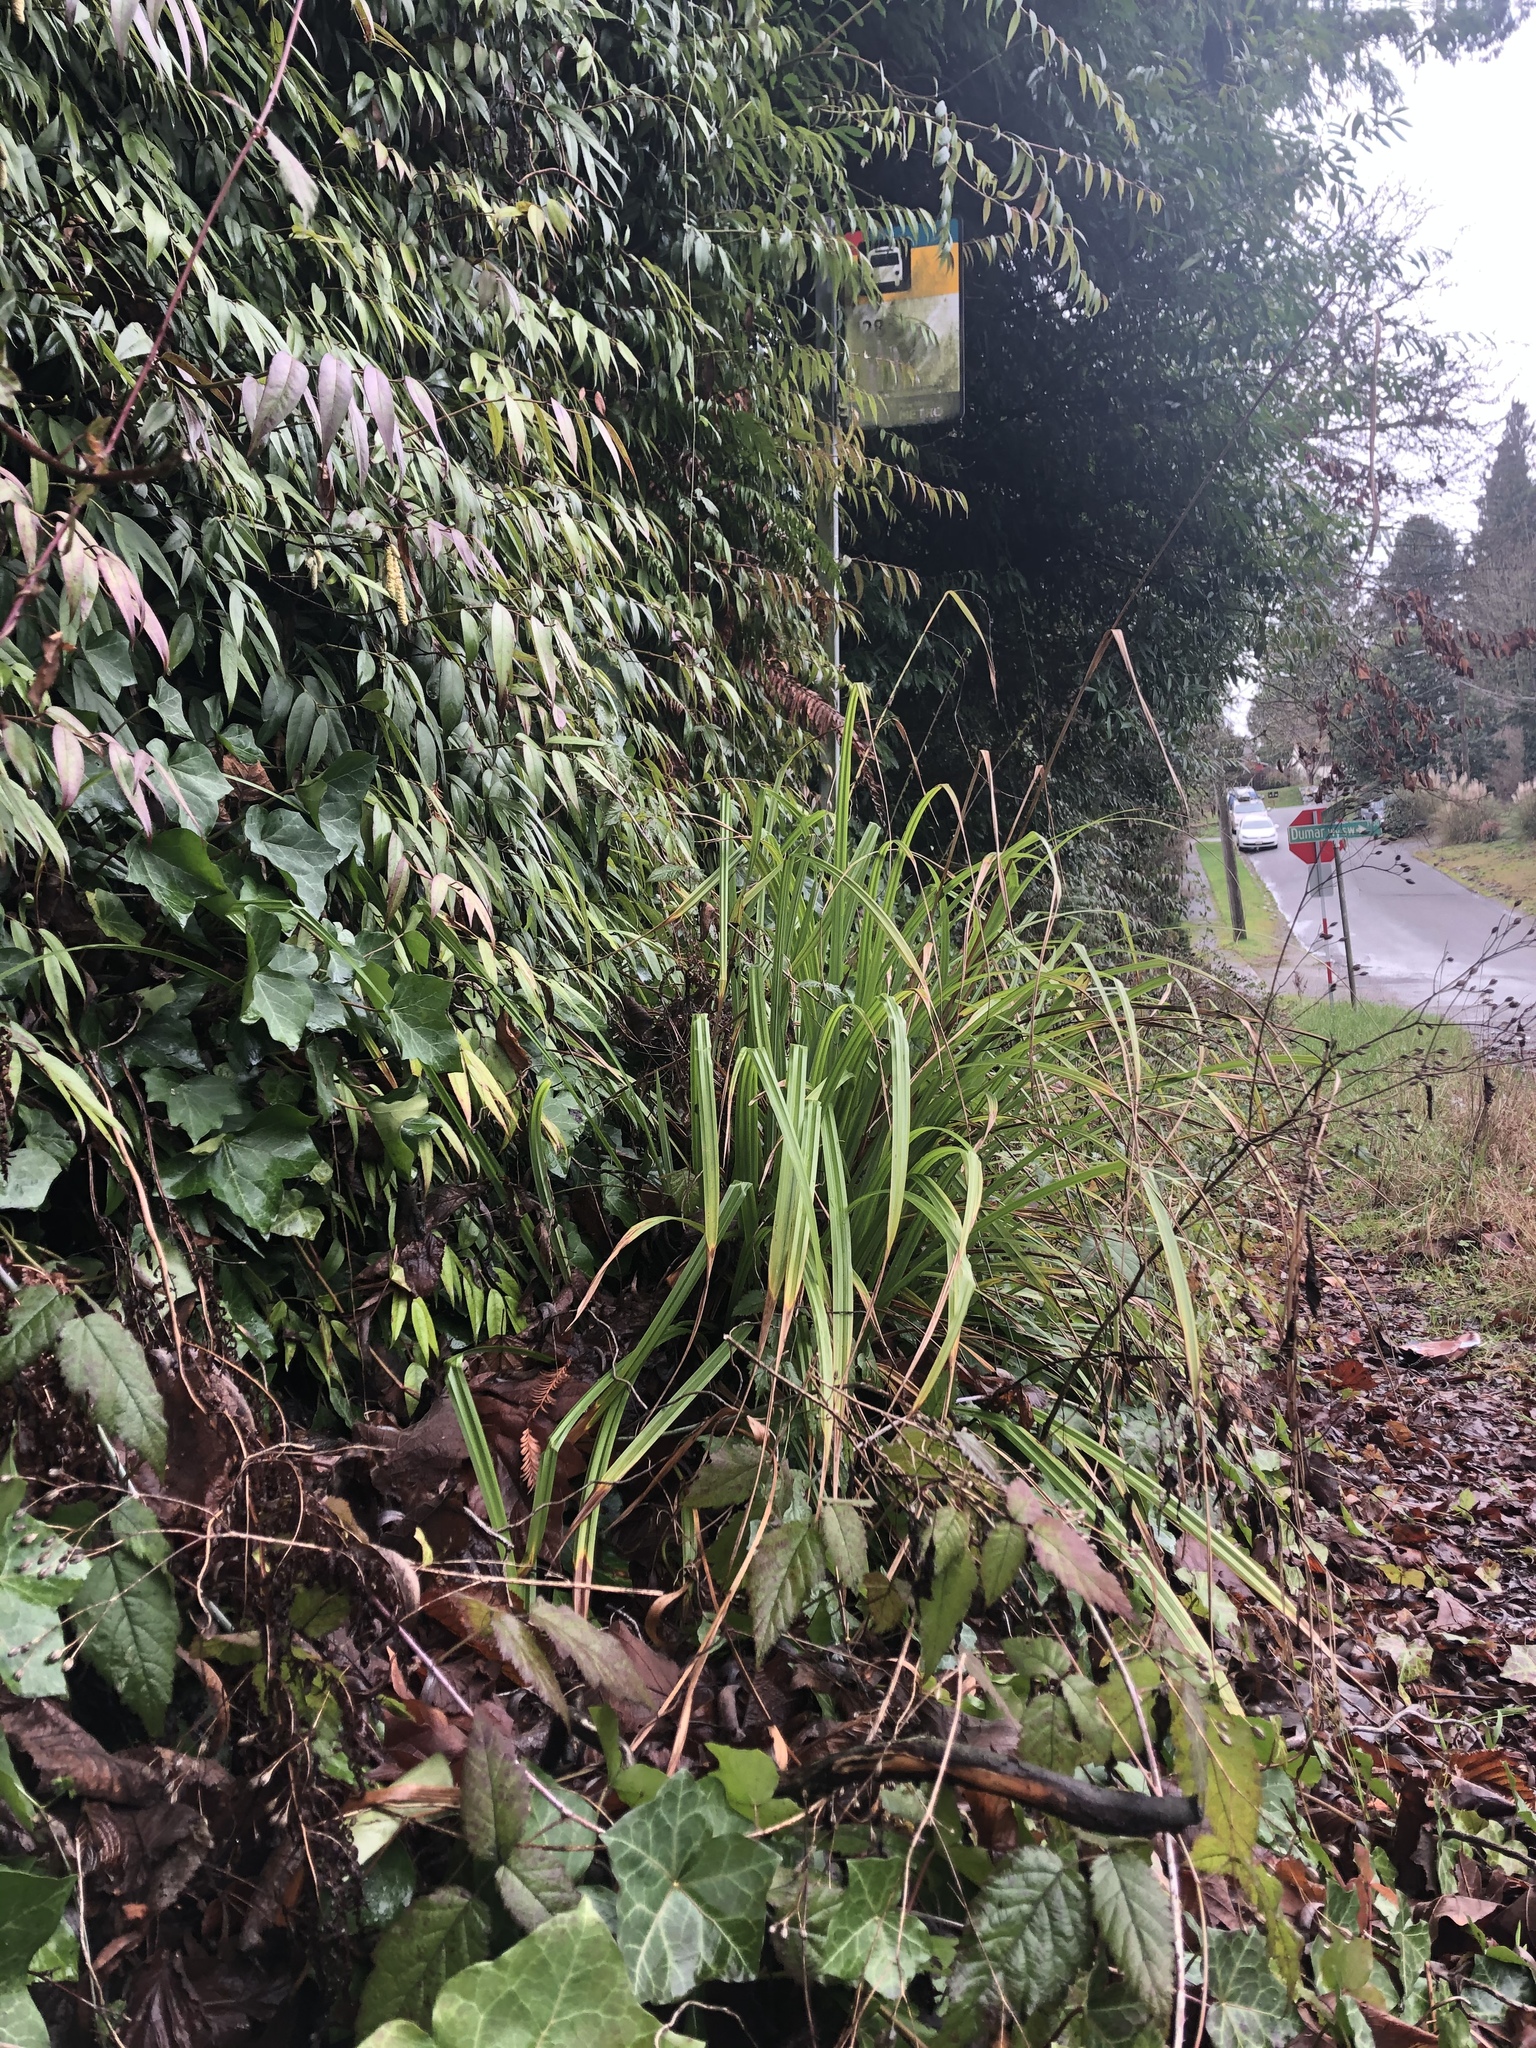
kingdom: Plantae
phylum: Tracheophyta
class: Liliopsida
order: Poales
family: Cyperaceae
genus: Carex
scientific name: Carex pendula
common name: Pendulous sedge
